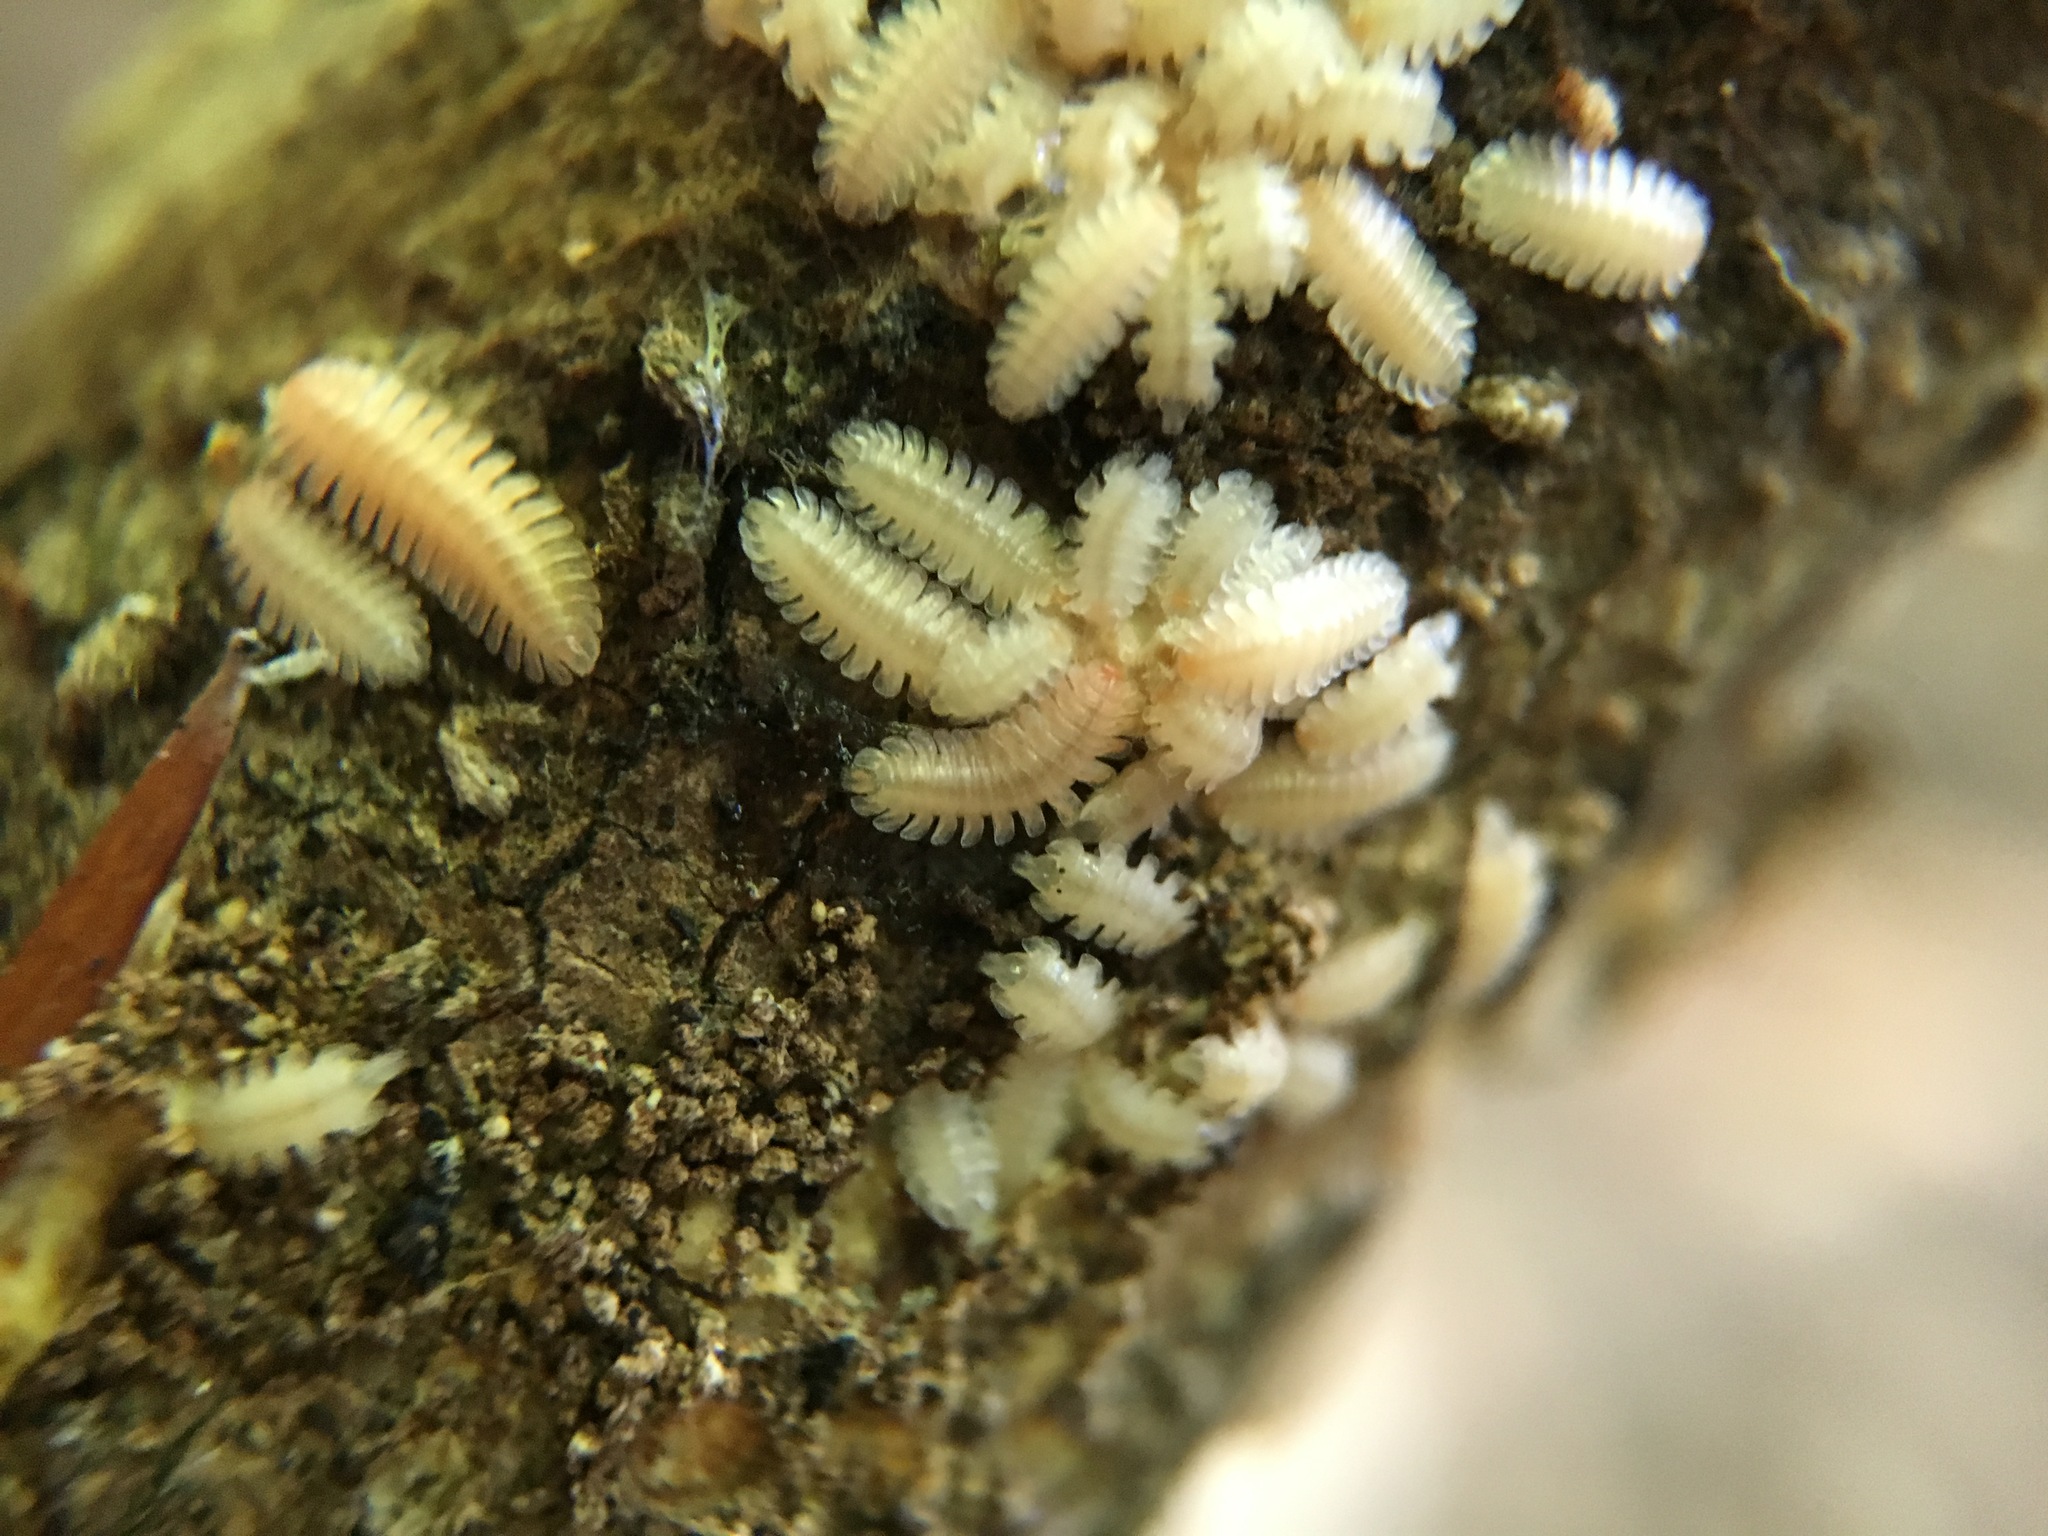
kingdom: Animalia
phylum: Arthropoda
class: Diplopoda
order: Platydesmida
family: Andrognathidae
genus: Brachycybe
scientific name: Brachycybe lecontii
